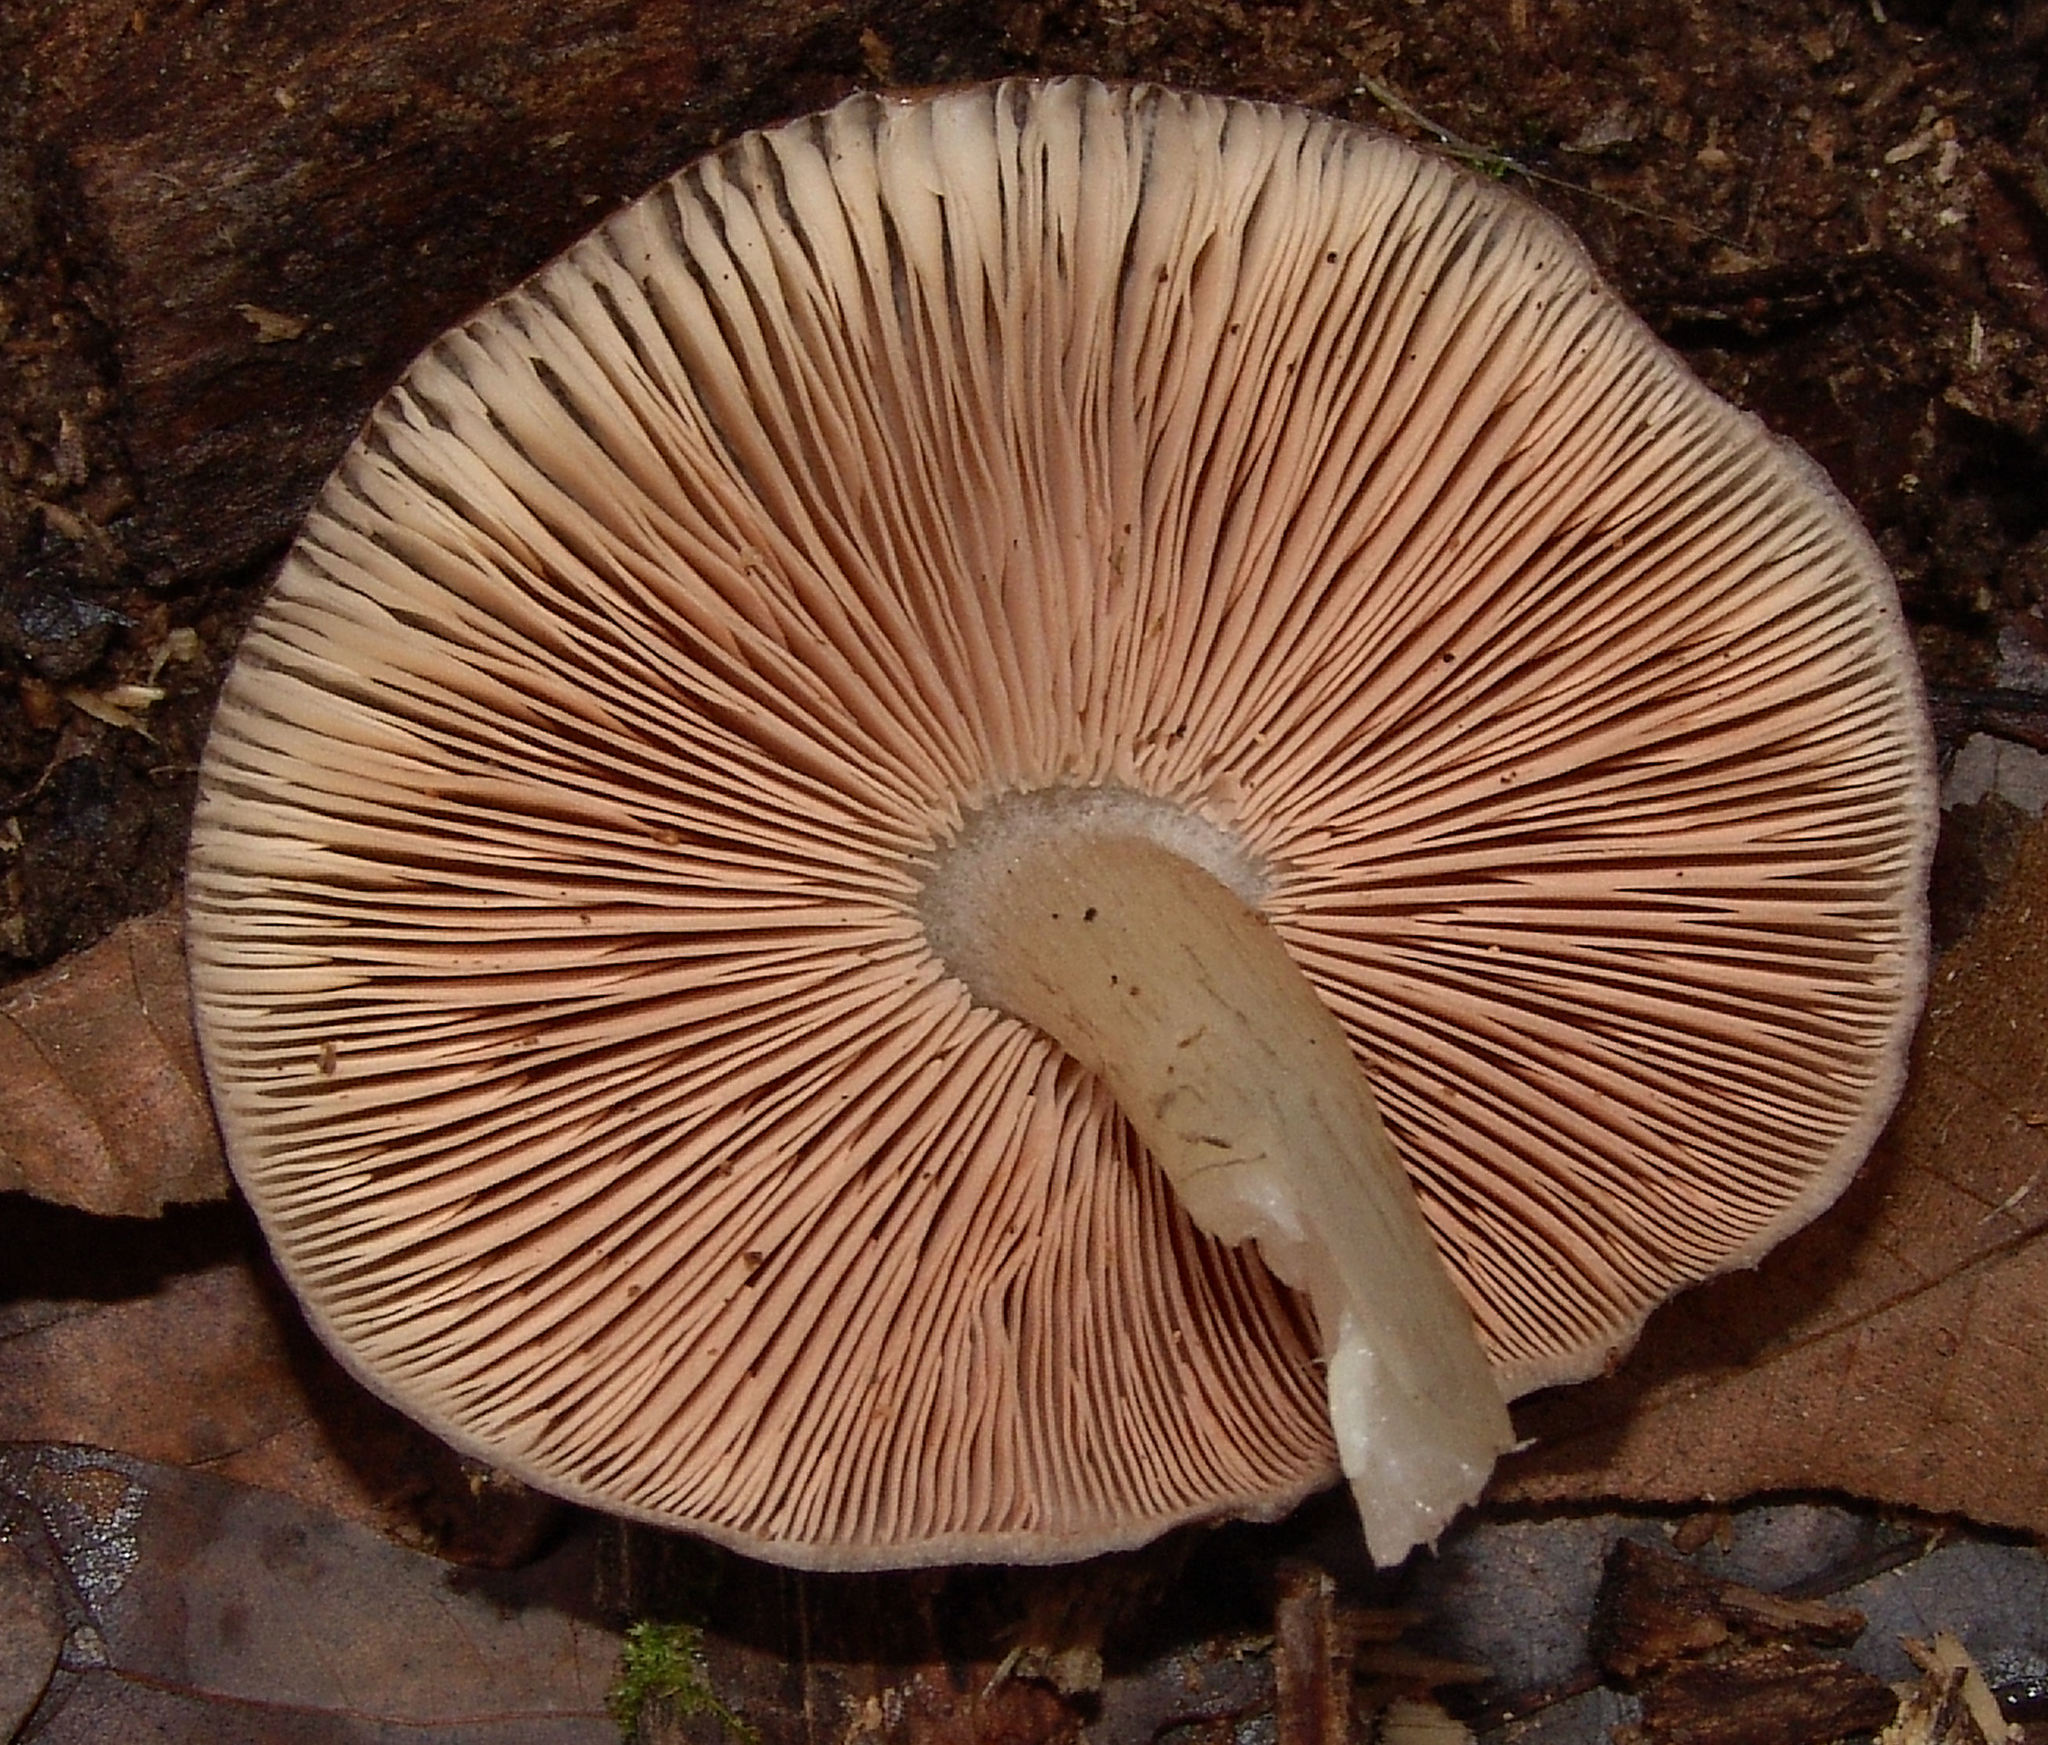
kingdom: Fungi
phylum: Basidiomycota
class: Agaricomycetes
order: Agaricales
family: Pluteaceae
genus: Pluteus
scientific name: Pluteus cervinus
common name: Deer shield
